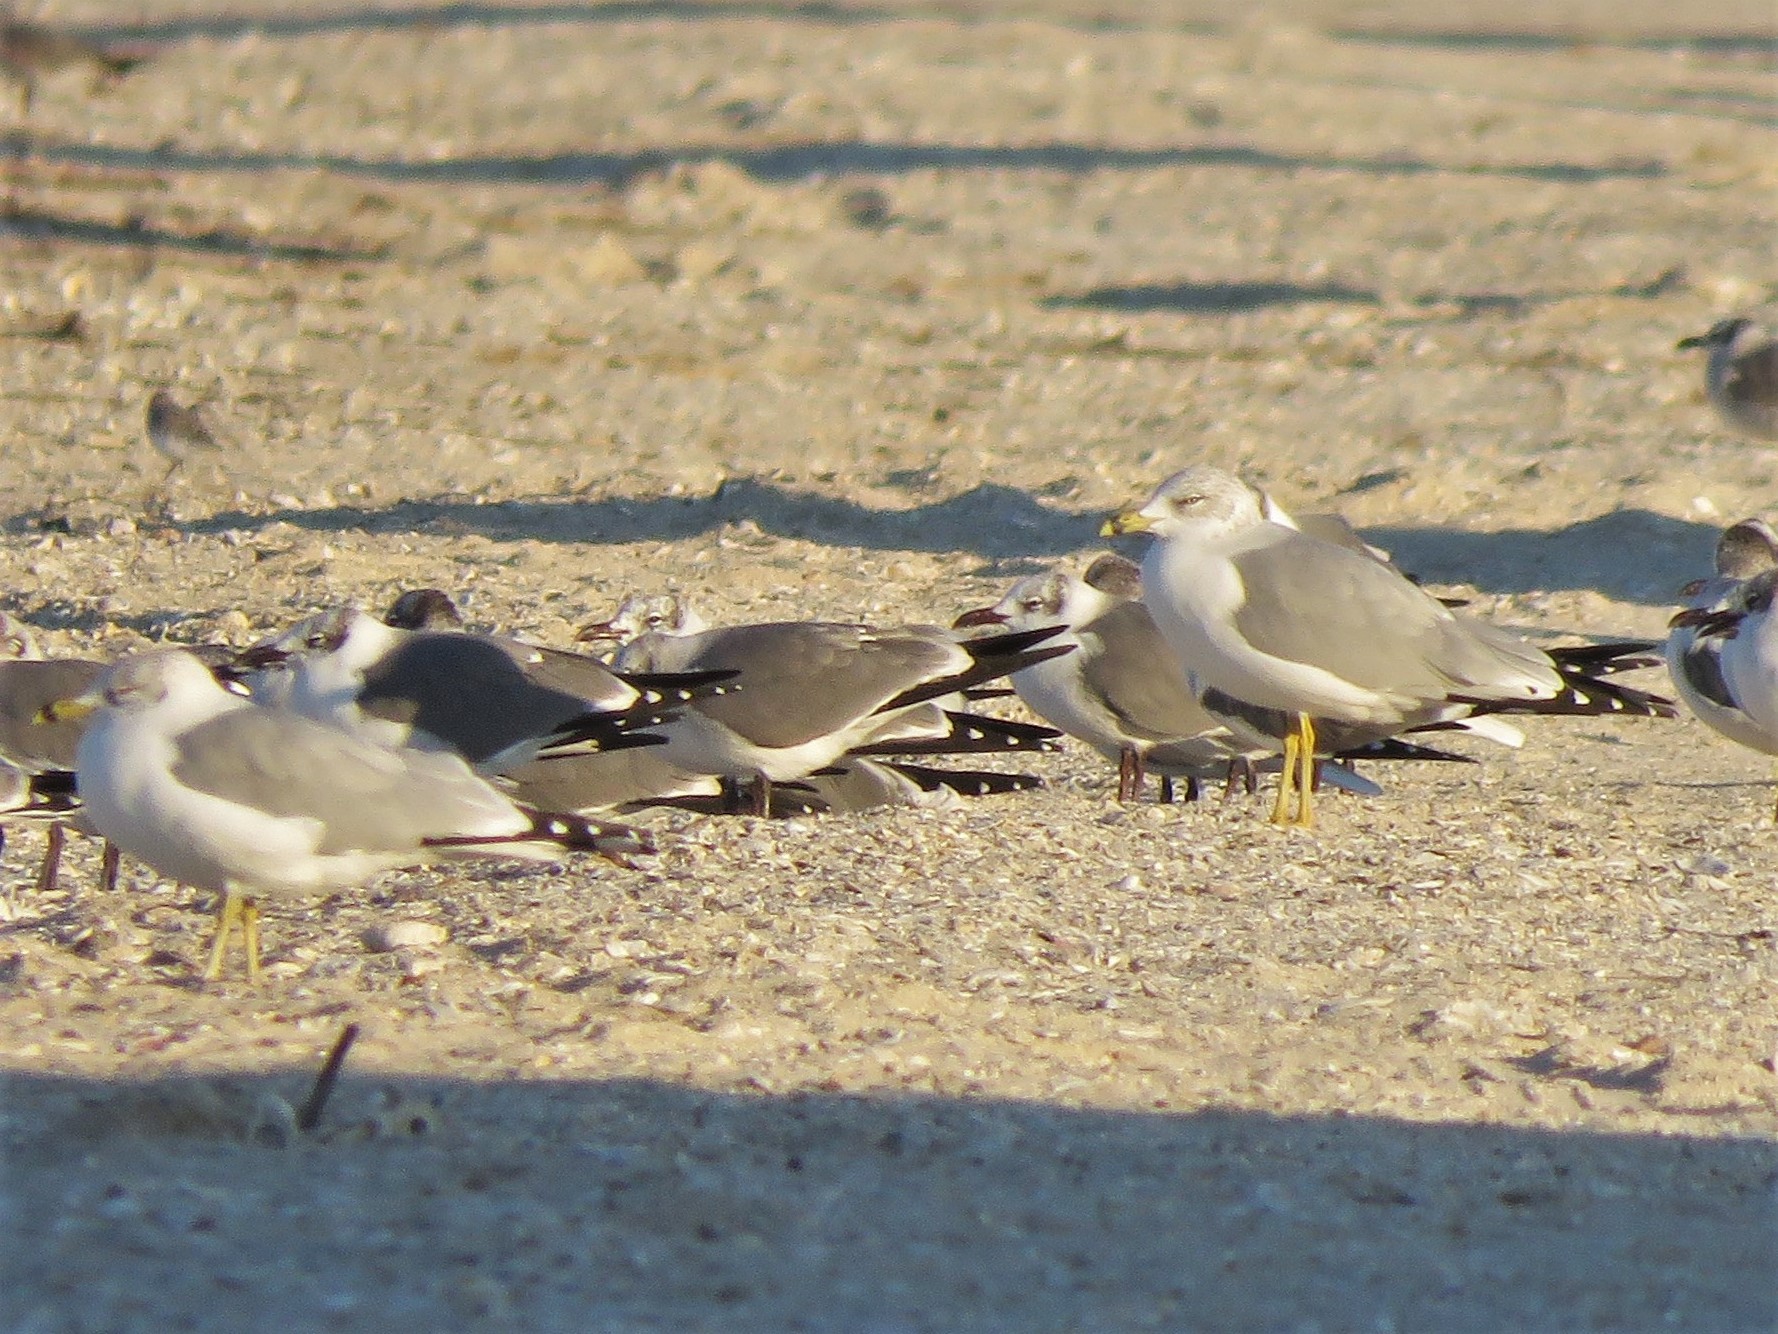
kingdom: Animalia
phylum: Chordata
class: Aves
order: Charadriiformes
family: Laridae
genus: Larus
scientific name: Larus delawarensis
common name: Ring-billed gull
